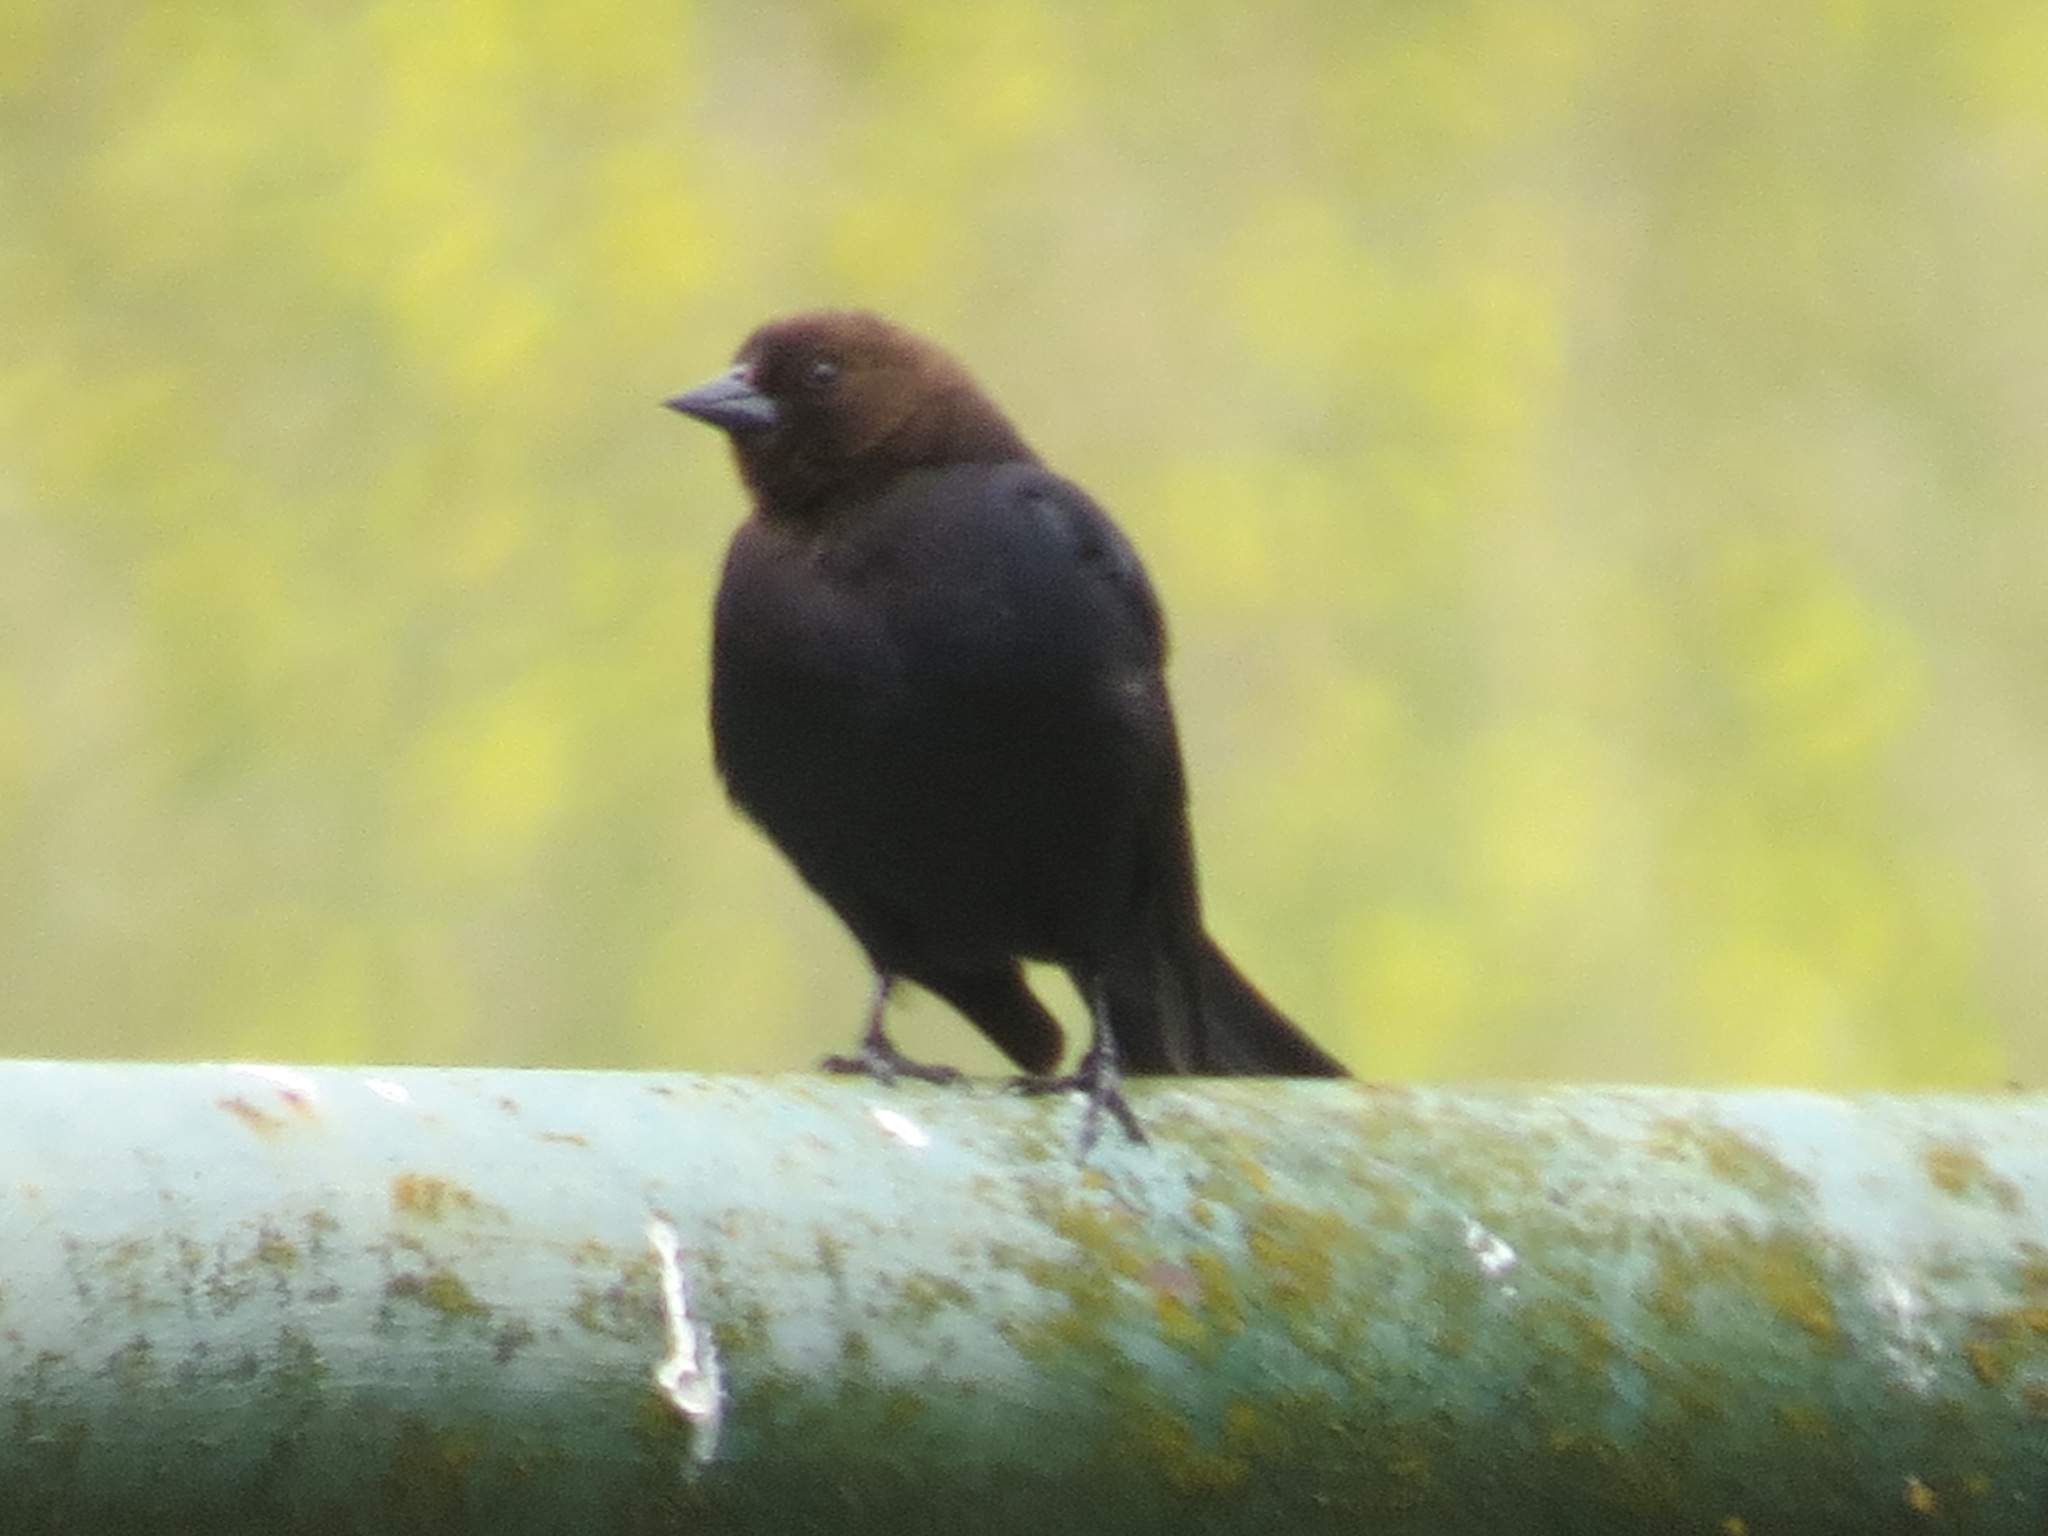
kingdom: Animalia
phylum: Chordata
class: Aves
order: Passeriformes
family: Icteridae
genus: Molothrus
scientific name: Molothrus ater
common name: Brown-headed cowbird
